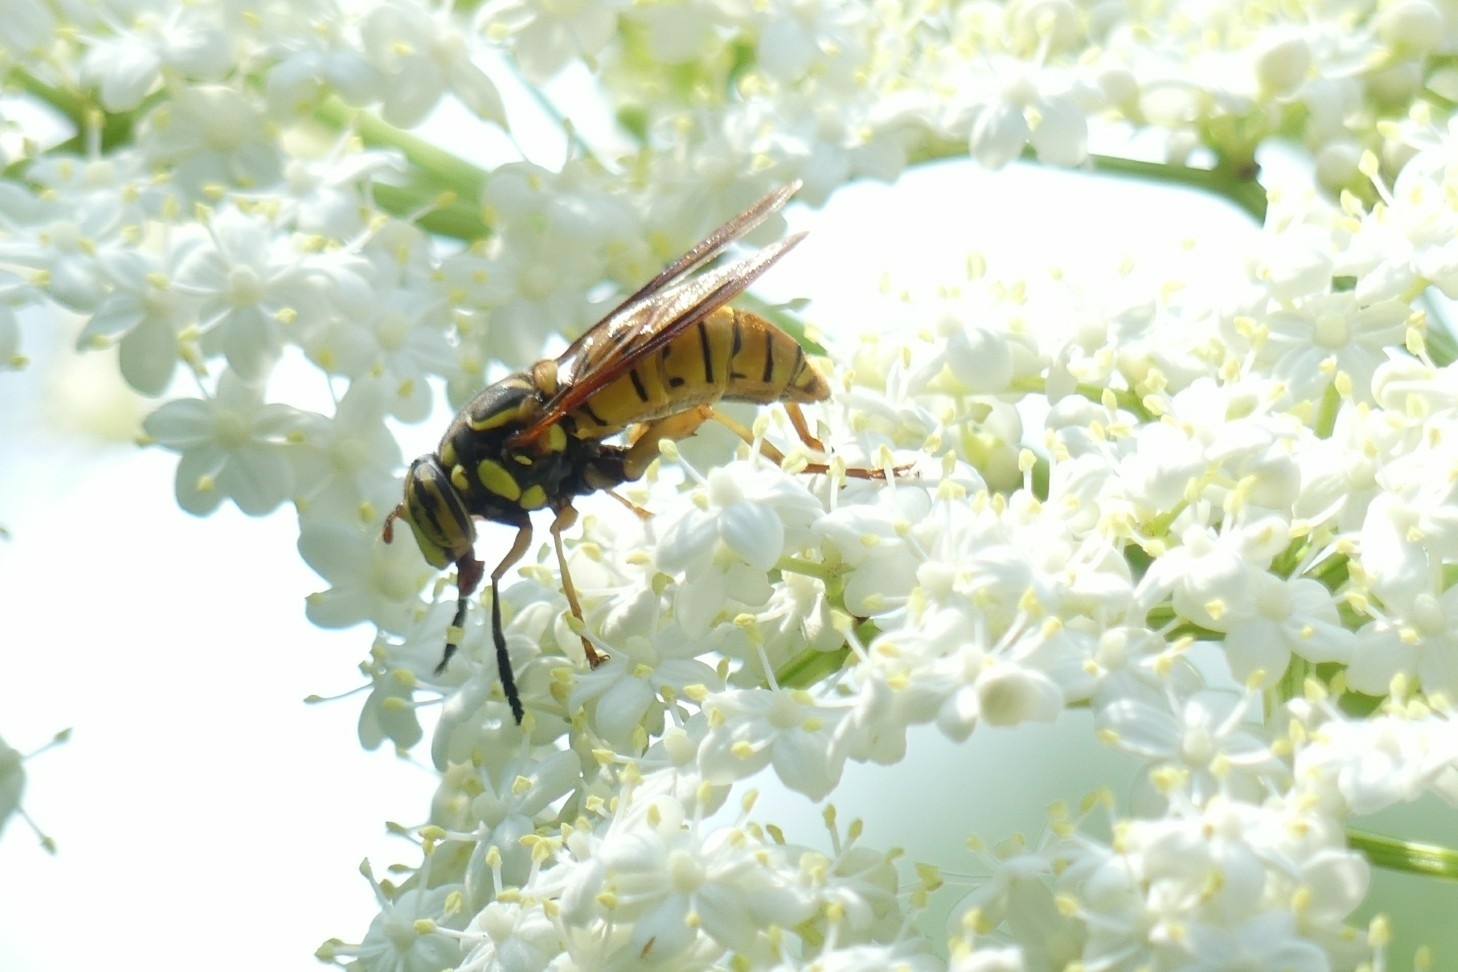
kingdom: Animalia
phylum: Arthropoda
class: Insecta
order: Diptera
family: Syrphidae
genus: Spilomyia
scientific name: Spilomyia alcimus
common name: Broad-banded hornet fly
